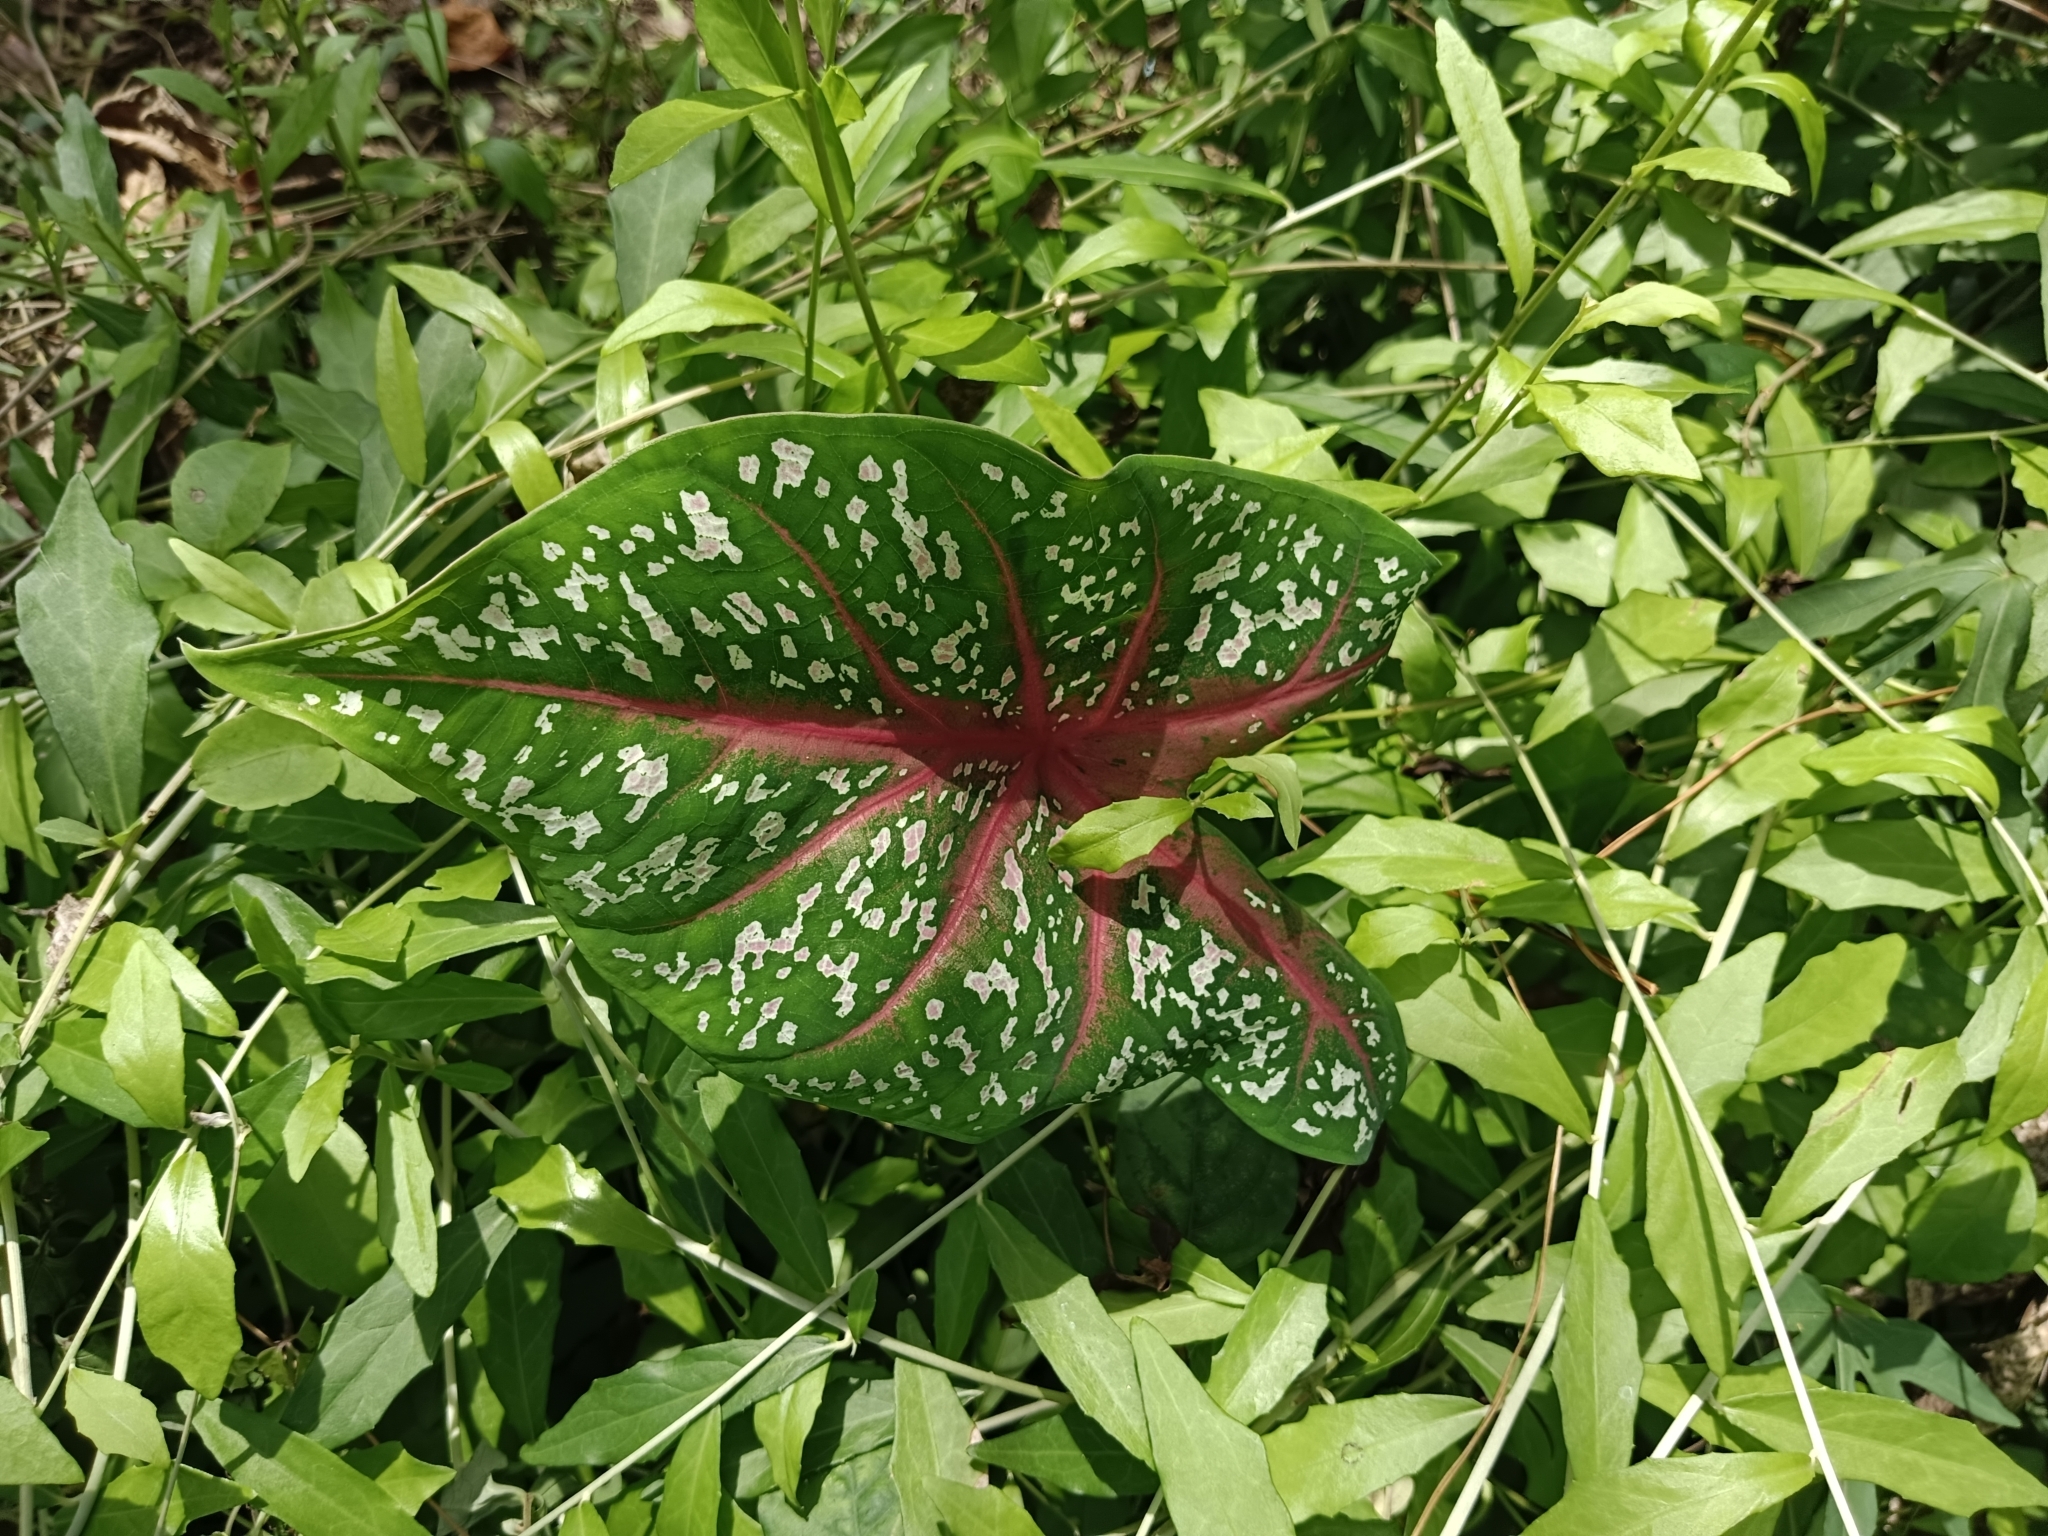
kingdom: Plantae
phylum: Tracheophyta
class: Liliopsida
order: Alismatales
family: Araceae
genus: Caladium
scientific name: Caladium bicolor
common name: Artist's pallet
